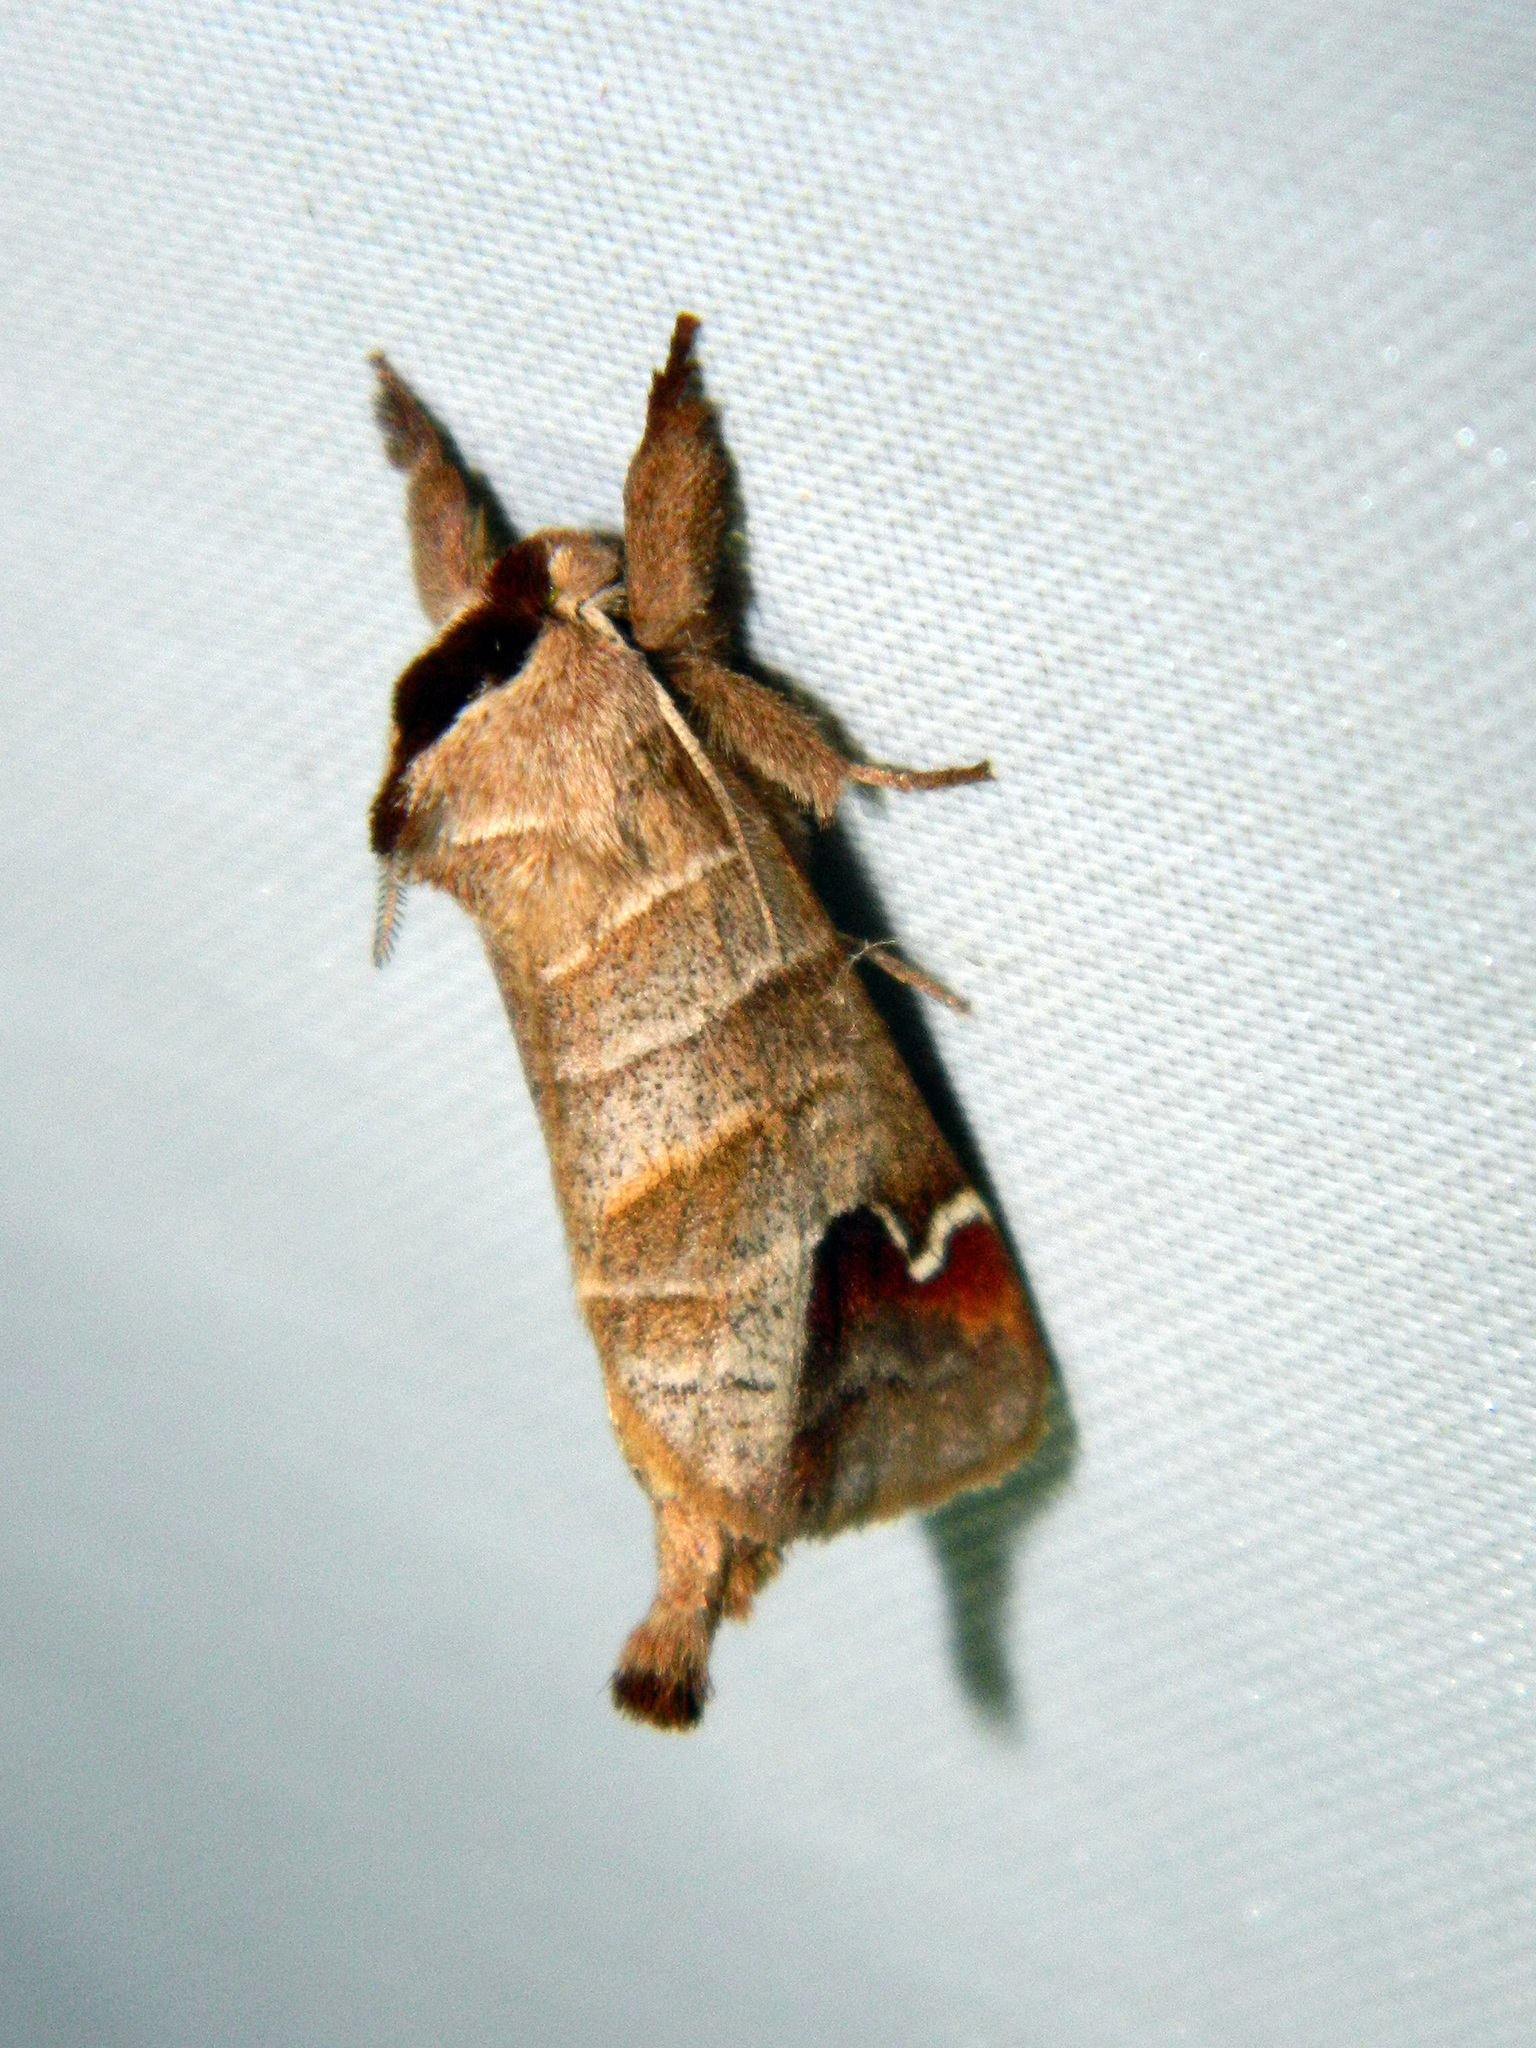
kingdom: Animalia
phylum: Arthropoda
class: Insecta
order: Lepidoptera
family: Notodontidae
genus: Clostera
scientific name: Clostera albosigma
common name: Sigmoid prominent
